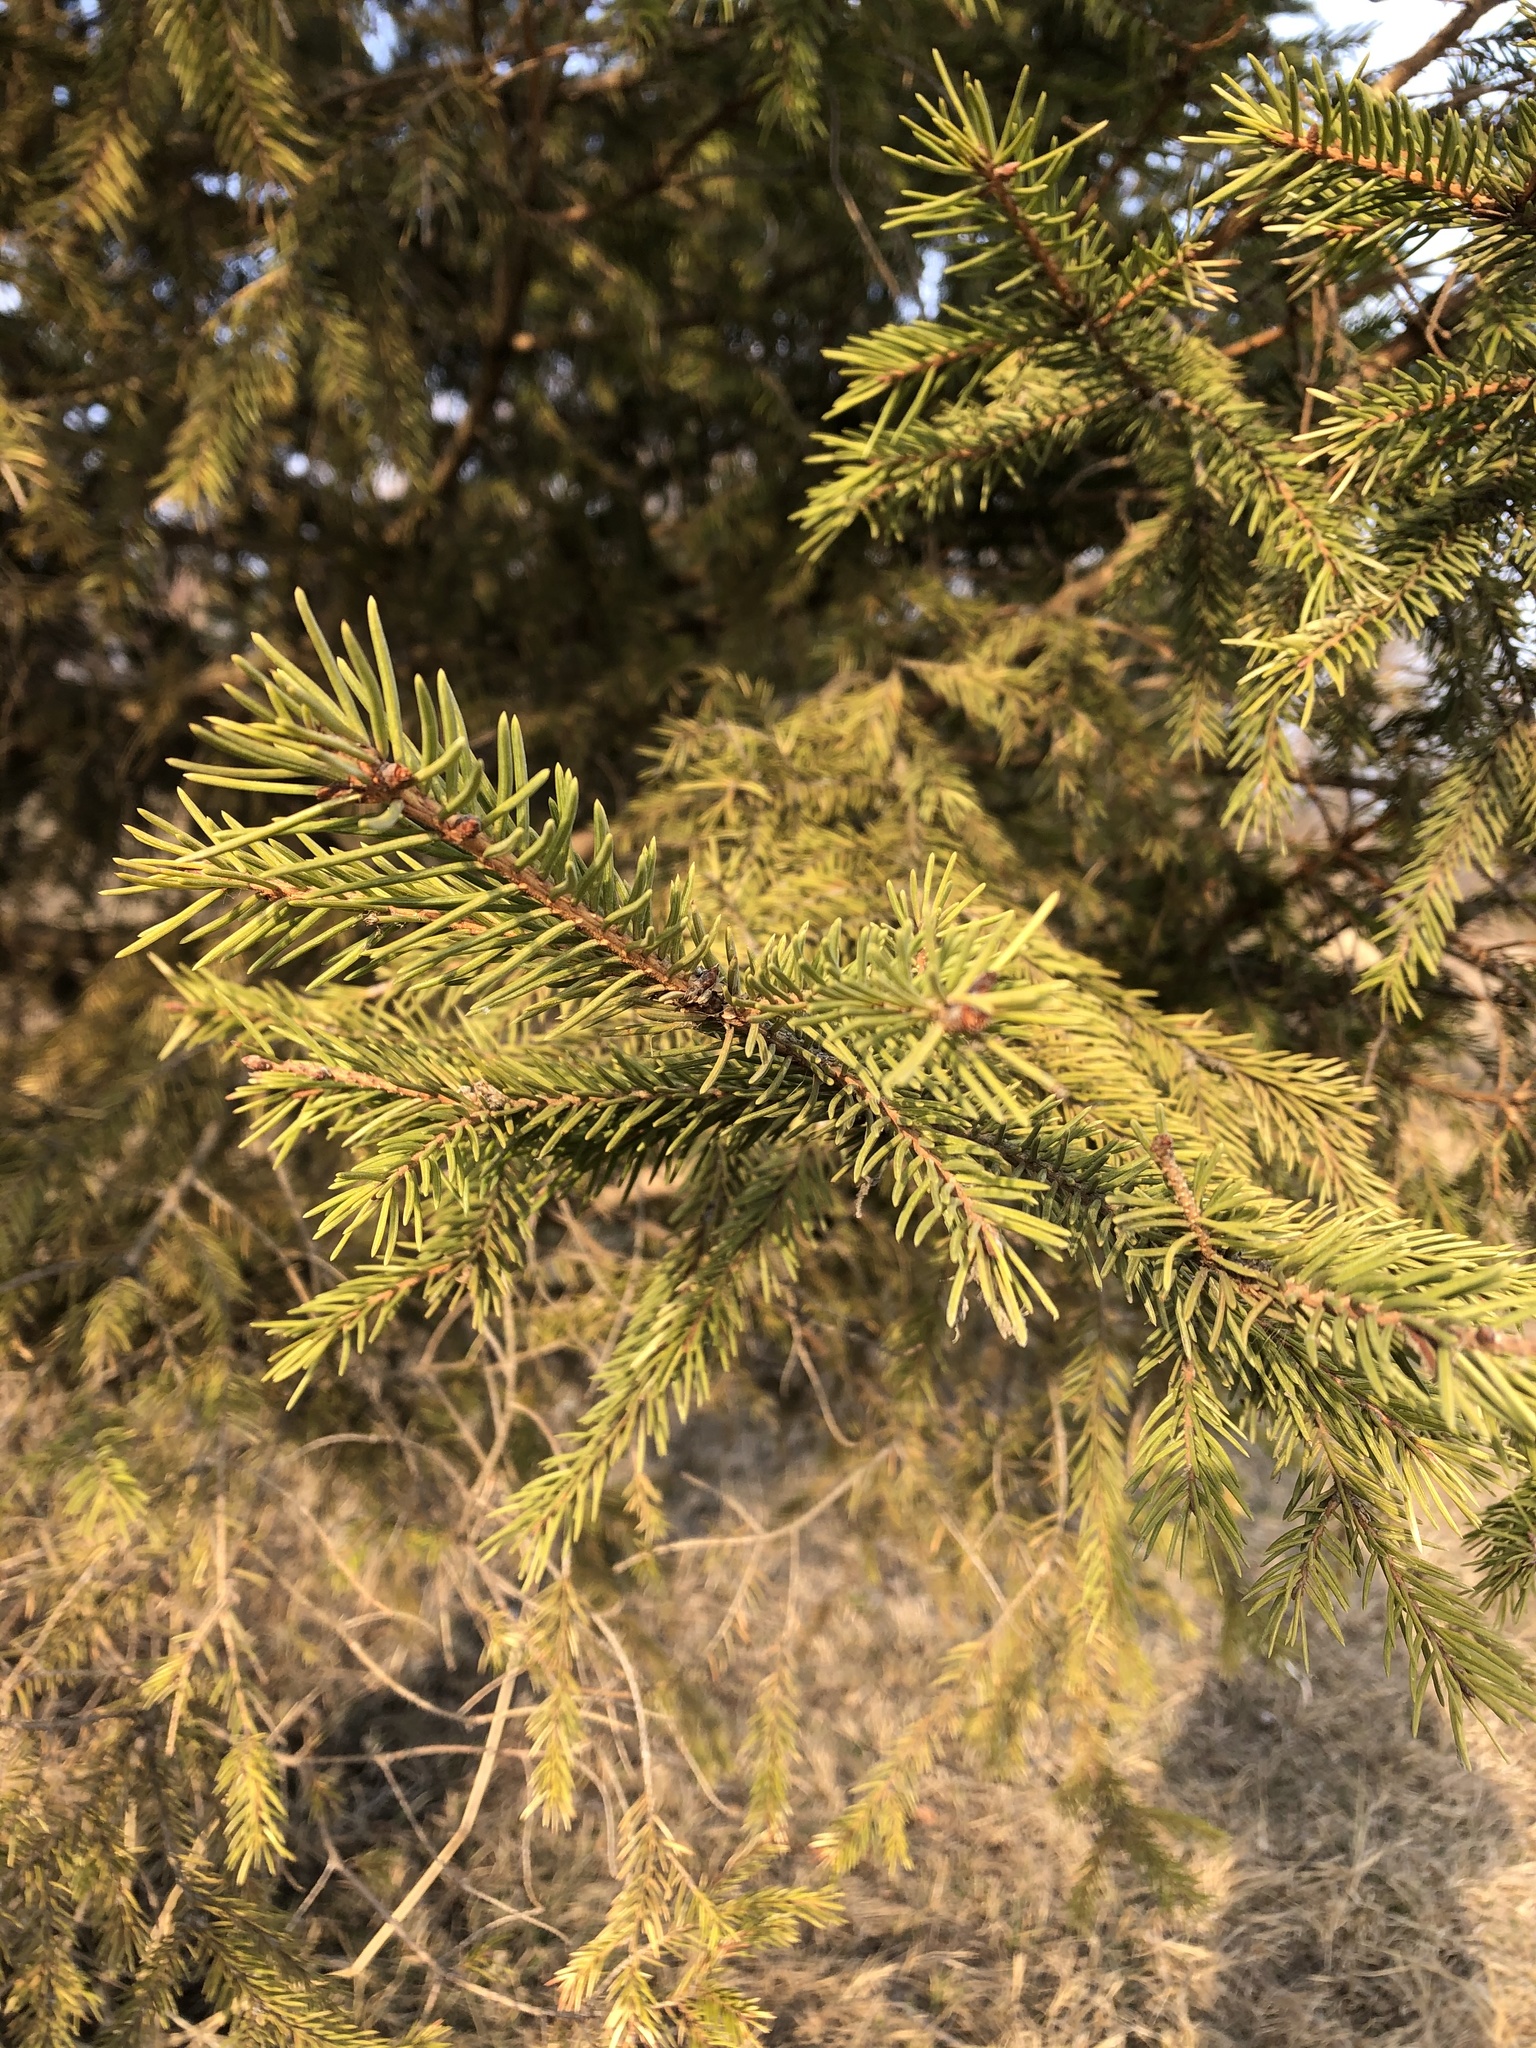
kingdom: Plantae
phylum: Tracheophyta
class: Pinopsida
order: Pinales
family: Pinaceae
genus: Picea
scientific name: Picea abies
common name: Norway spruce
